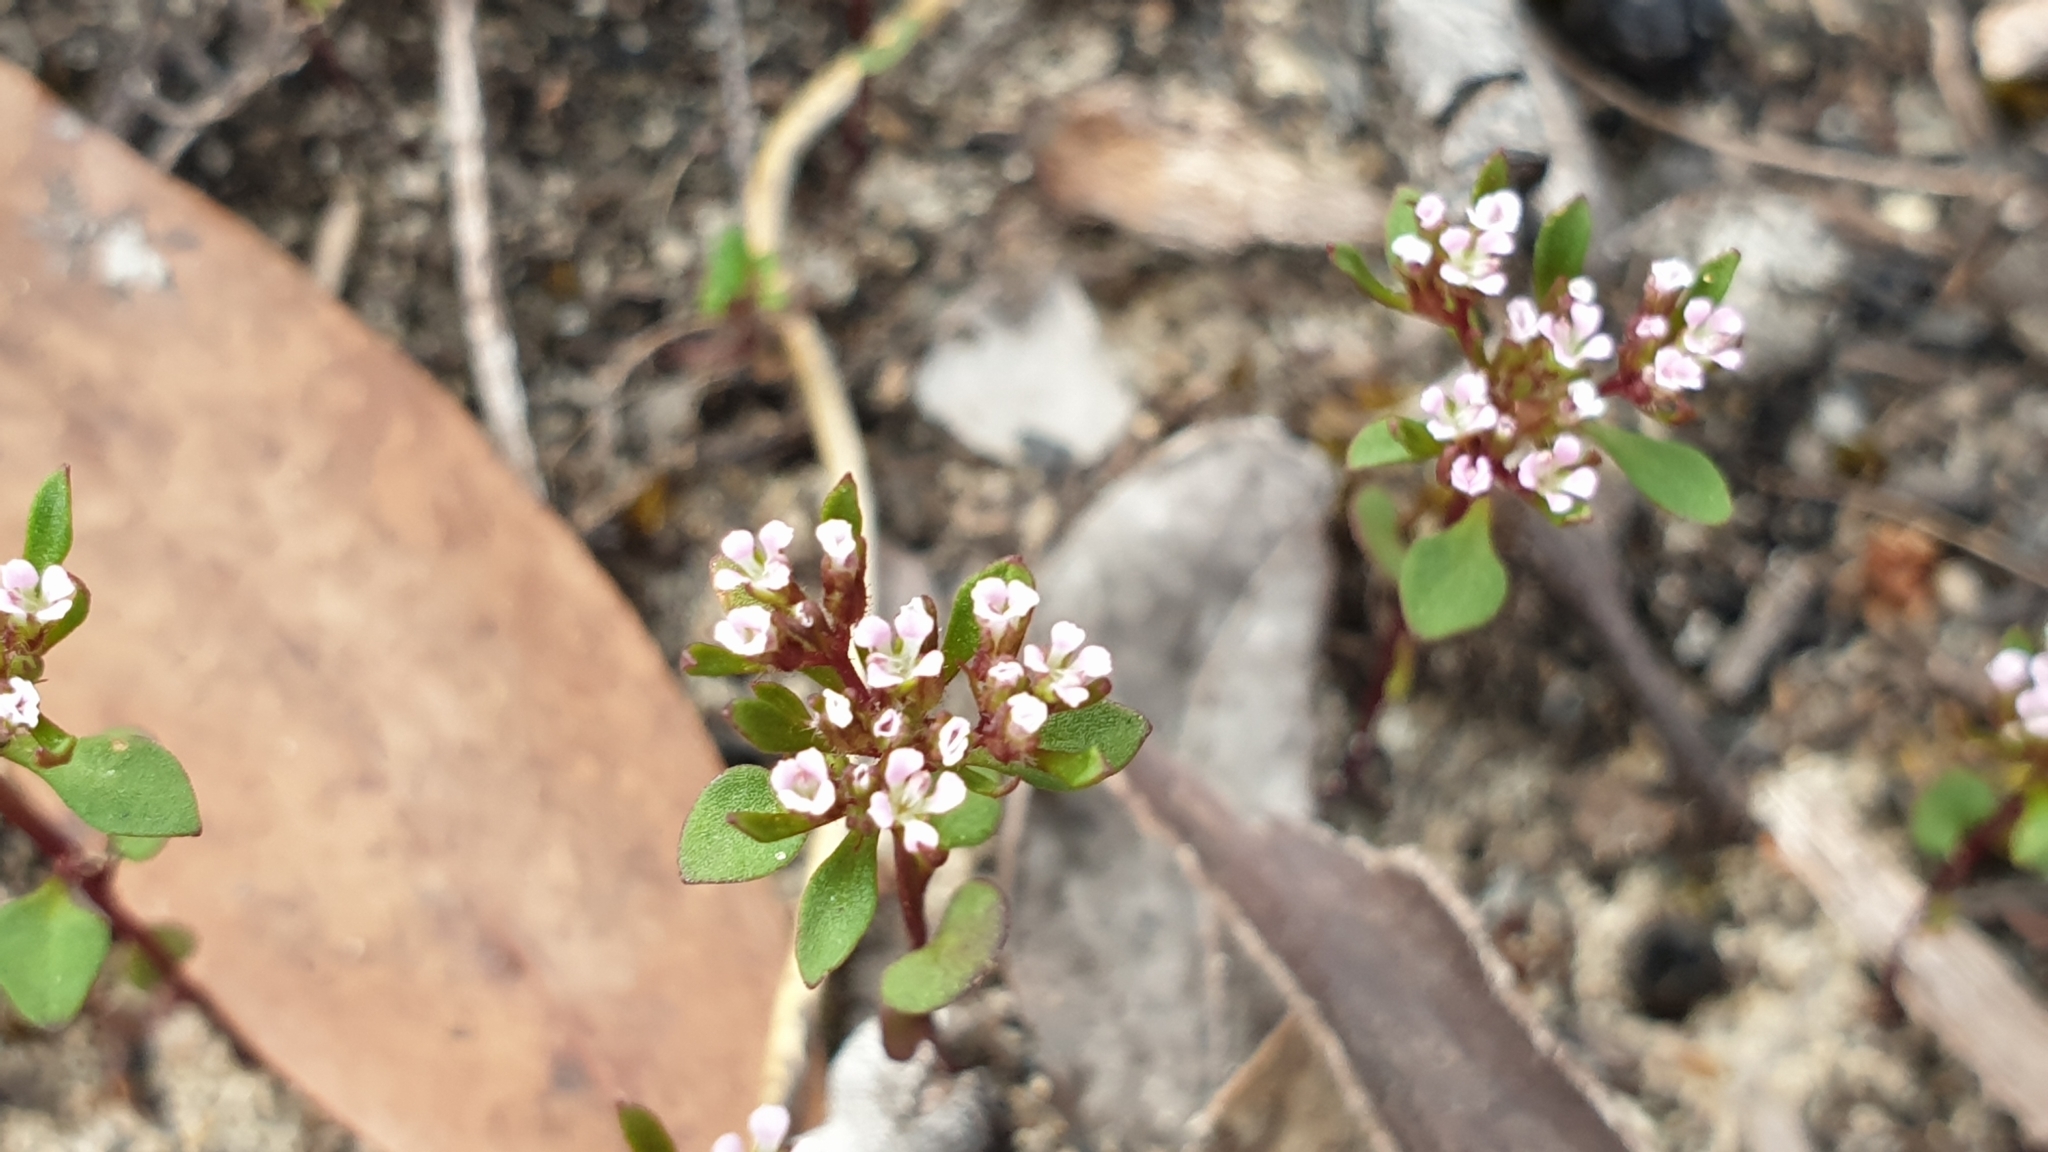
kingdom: Plantae
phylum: Tracheophyta
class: Magnoliopsida
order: Asterales
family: Stylidiaceae
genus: Levenhookia
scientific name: Levenhookia pusilla
